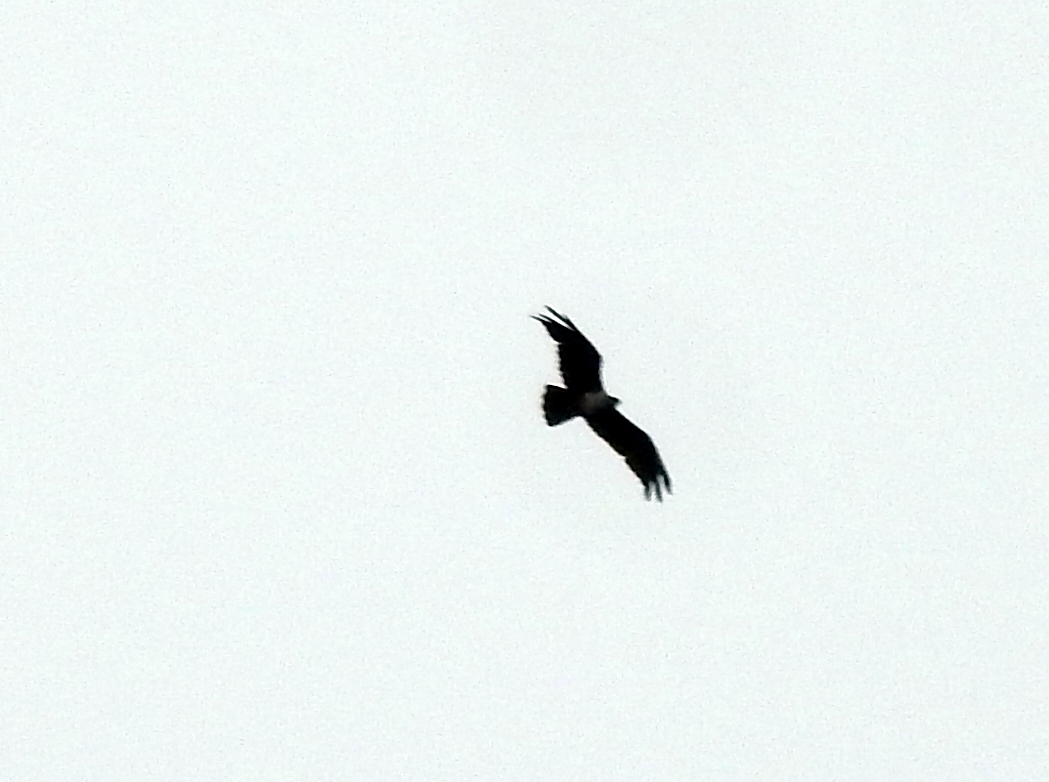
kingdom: Animalia
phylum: Chordata
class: Aves
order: Accipitriformes
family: Accipitridae
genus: Haliastur
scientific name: Haliastur indus
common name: Brahminy kite
